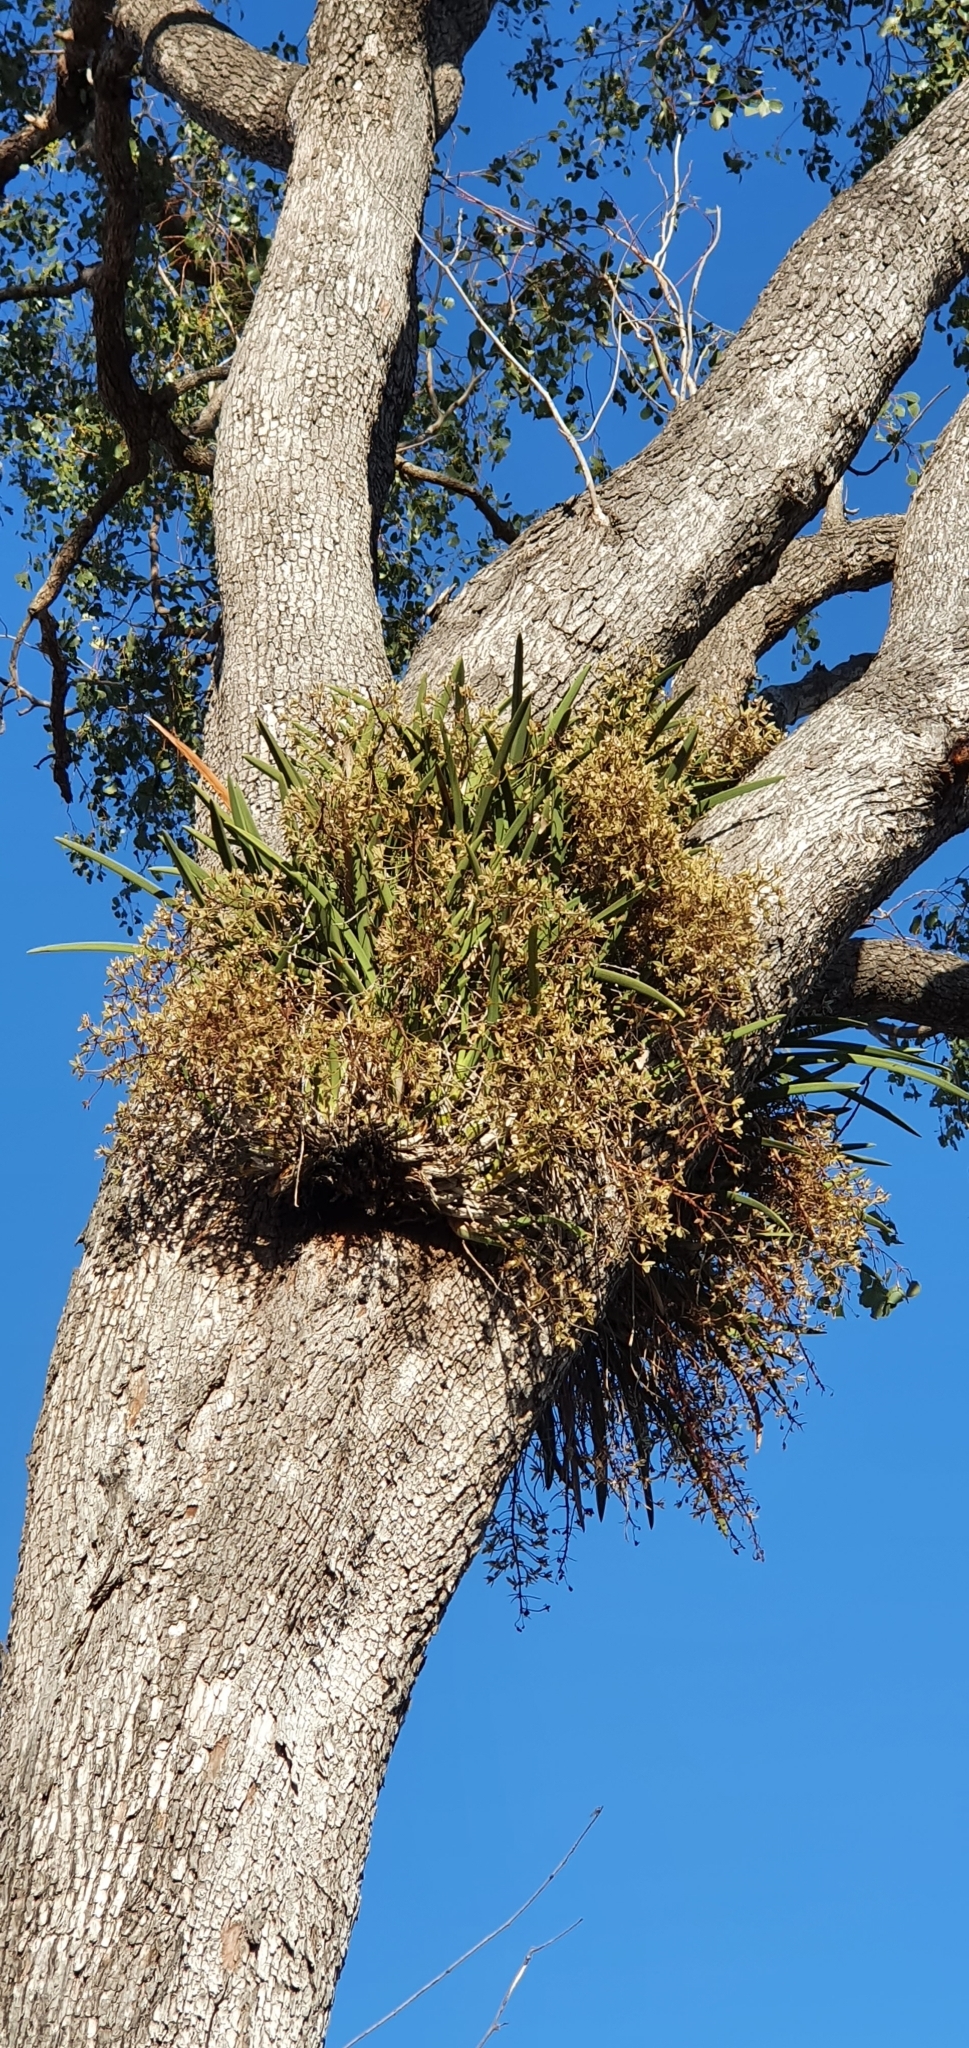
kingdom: Plantae
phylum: Tracheophyta
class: Liliopsida
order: Asparagales
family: Orchidaceae
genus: Cymbidium
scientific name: Cymbidium canaliculatum
